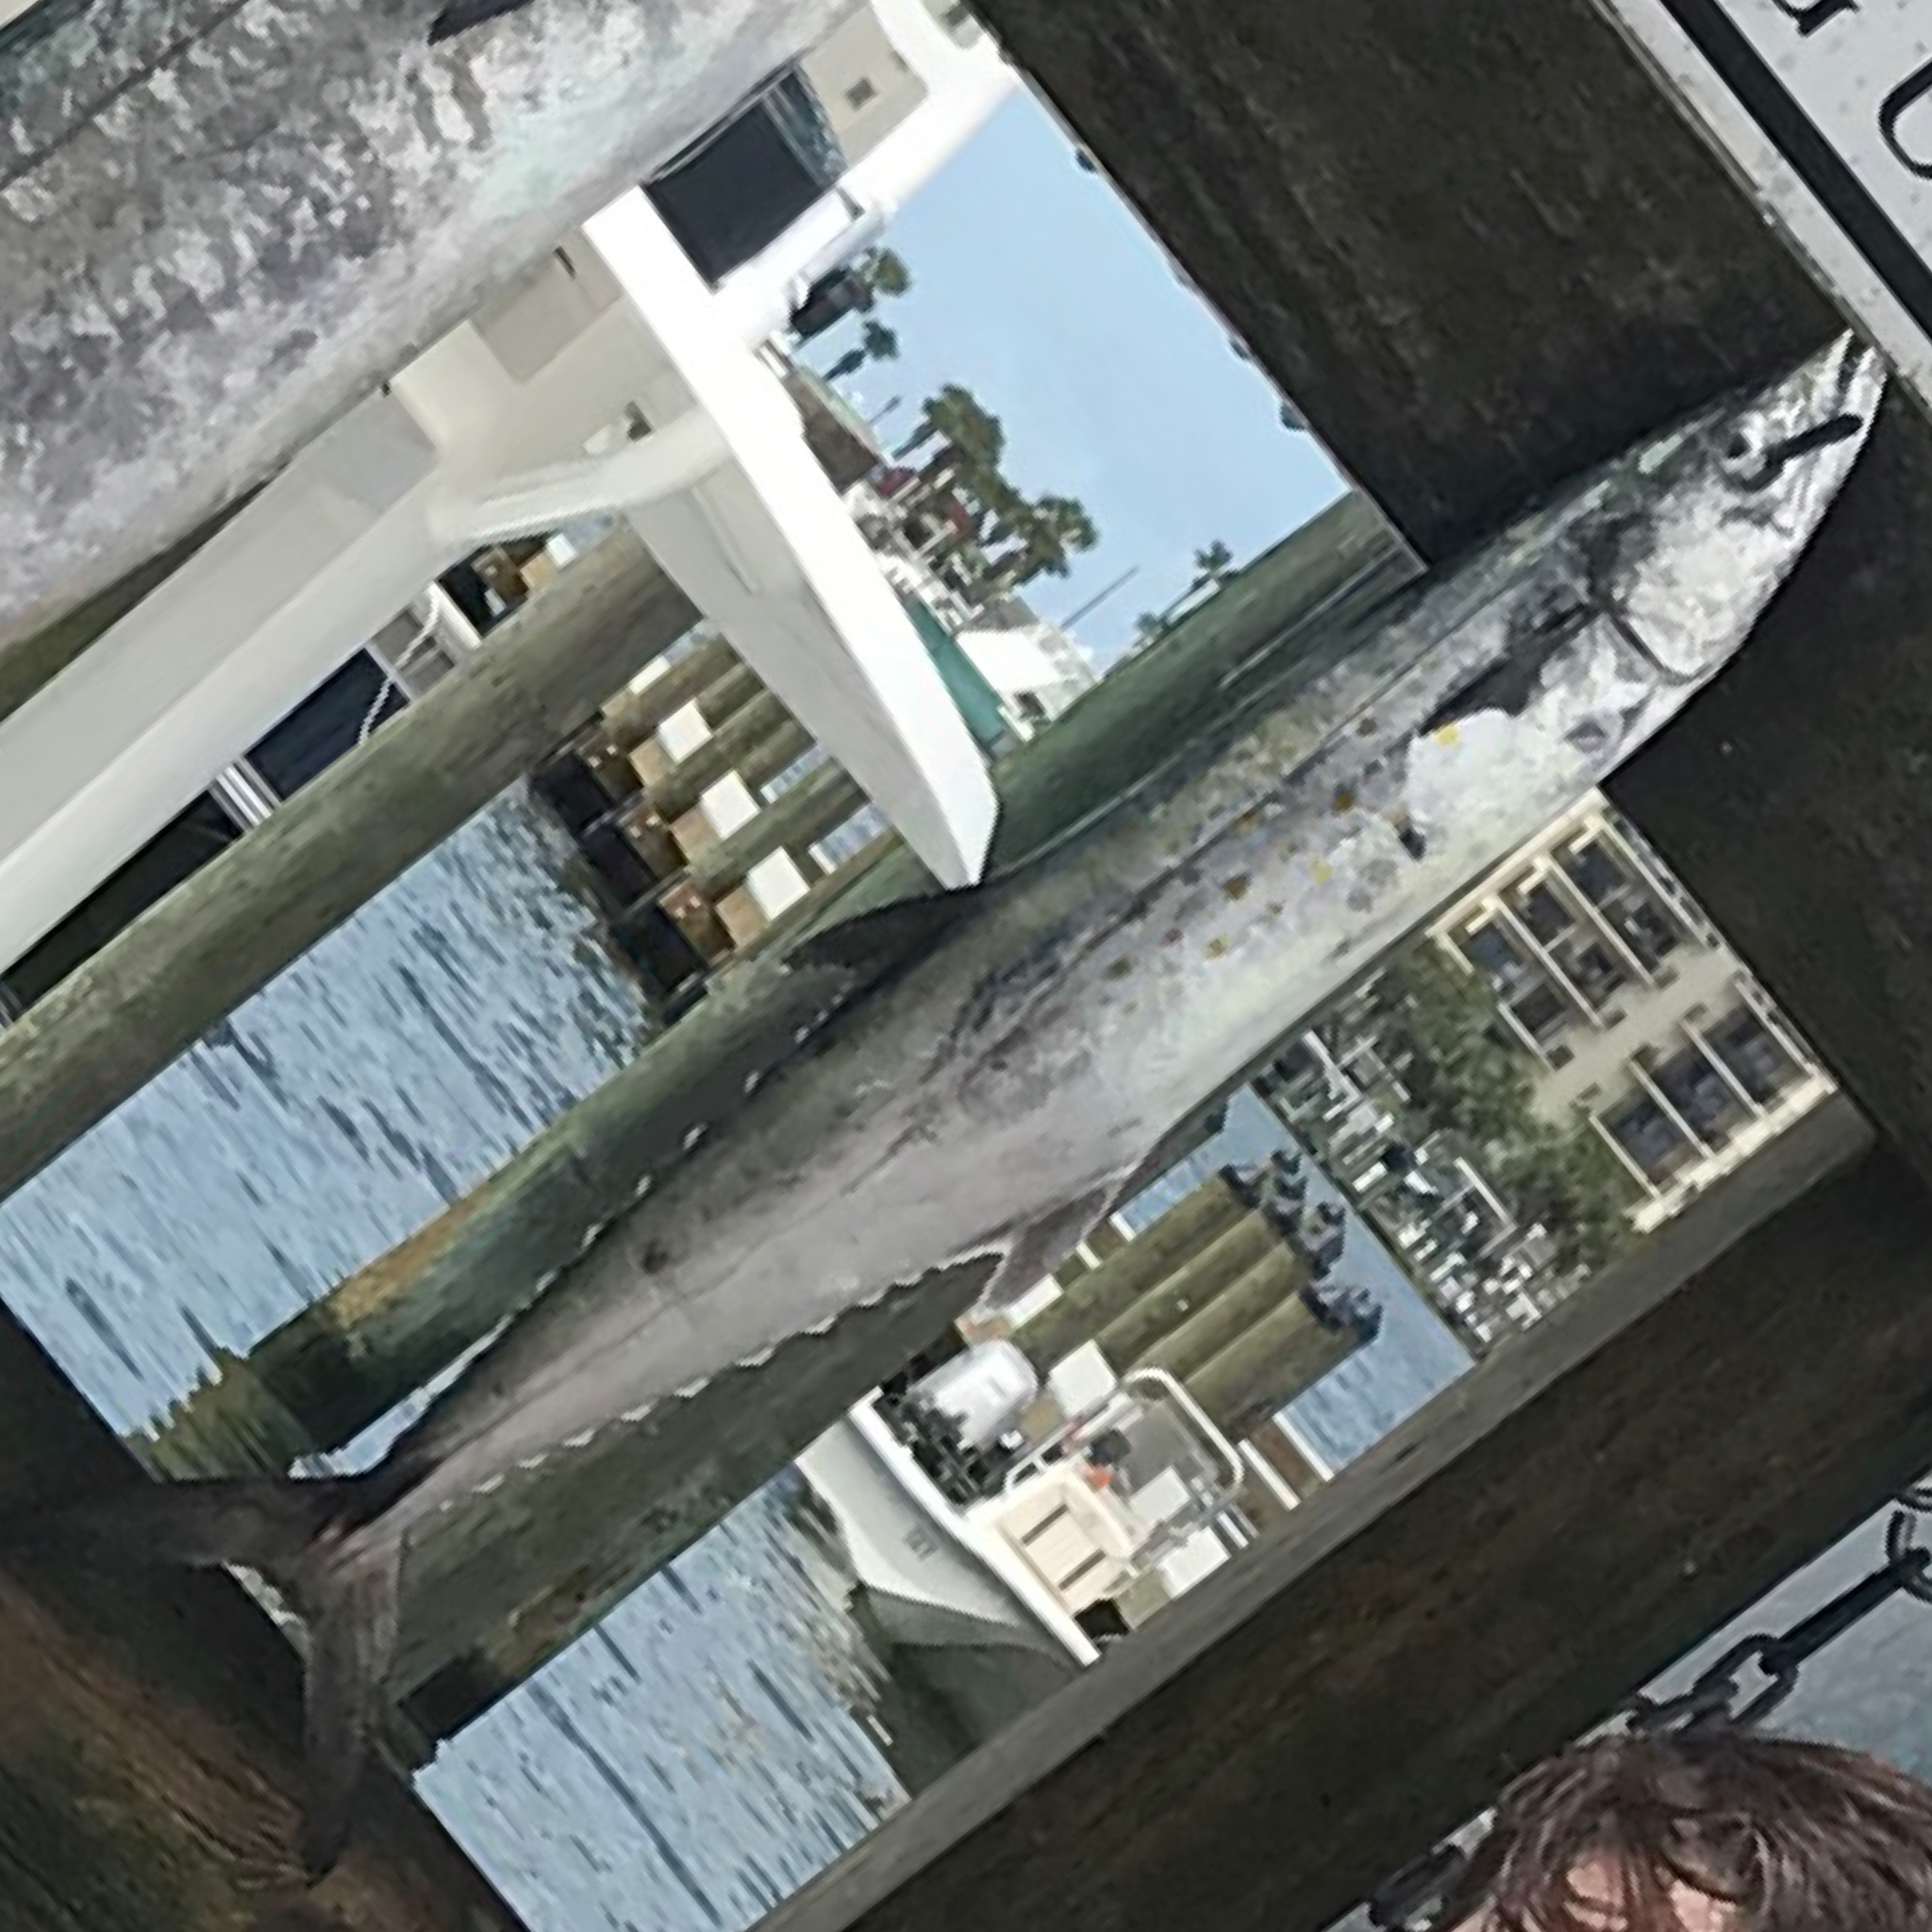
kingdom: Animalia
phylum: Chordata
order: Perciformes
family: Scombridae
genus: Scomberomorus
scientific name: Scomberomorus maculatus
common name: Spanish mackerel
